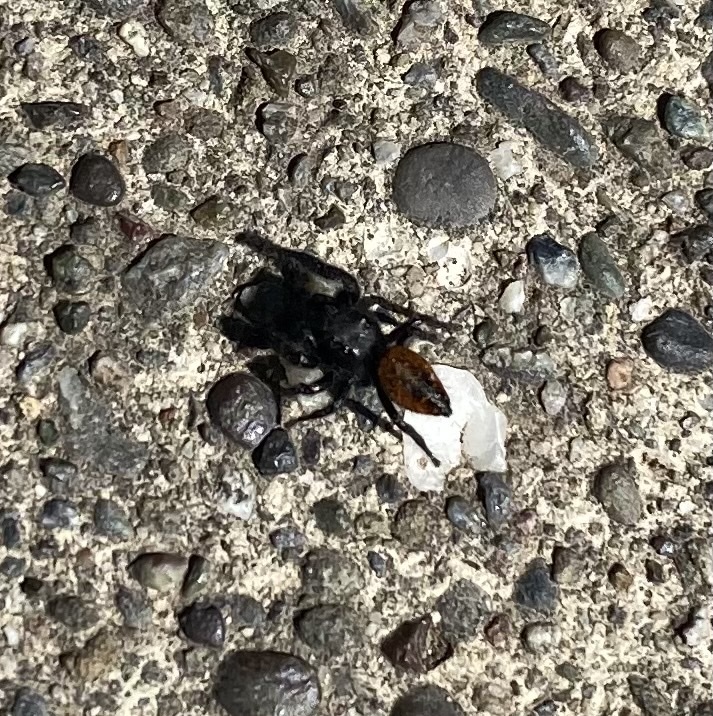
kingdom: Animalia
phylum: Arthropoda
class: Arachnida
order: Araneae
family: Salticidae
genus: Phidippus
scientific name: Phidippus johnsoni
